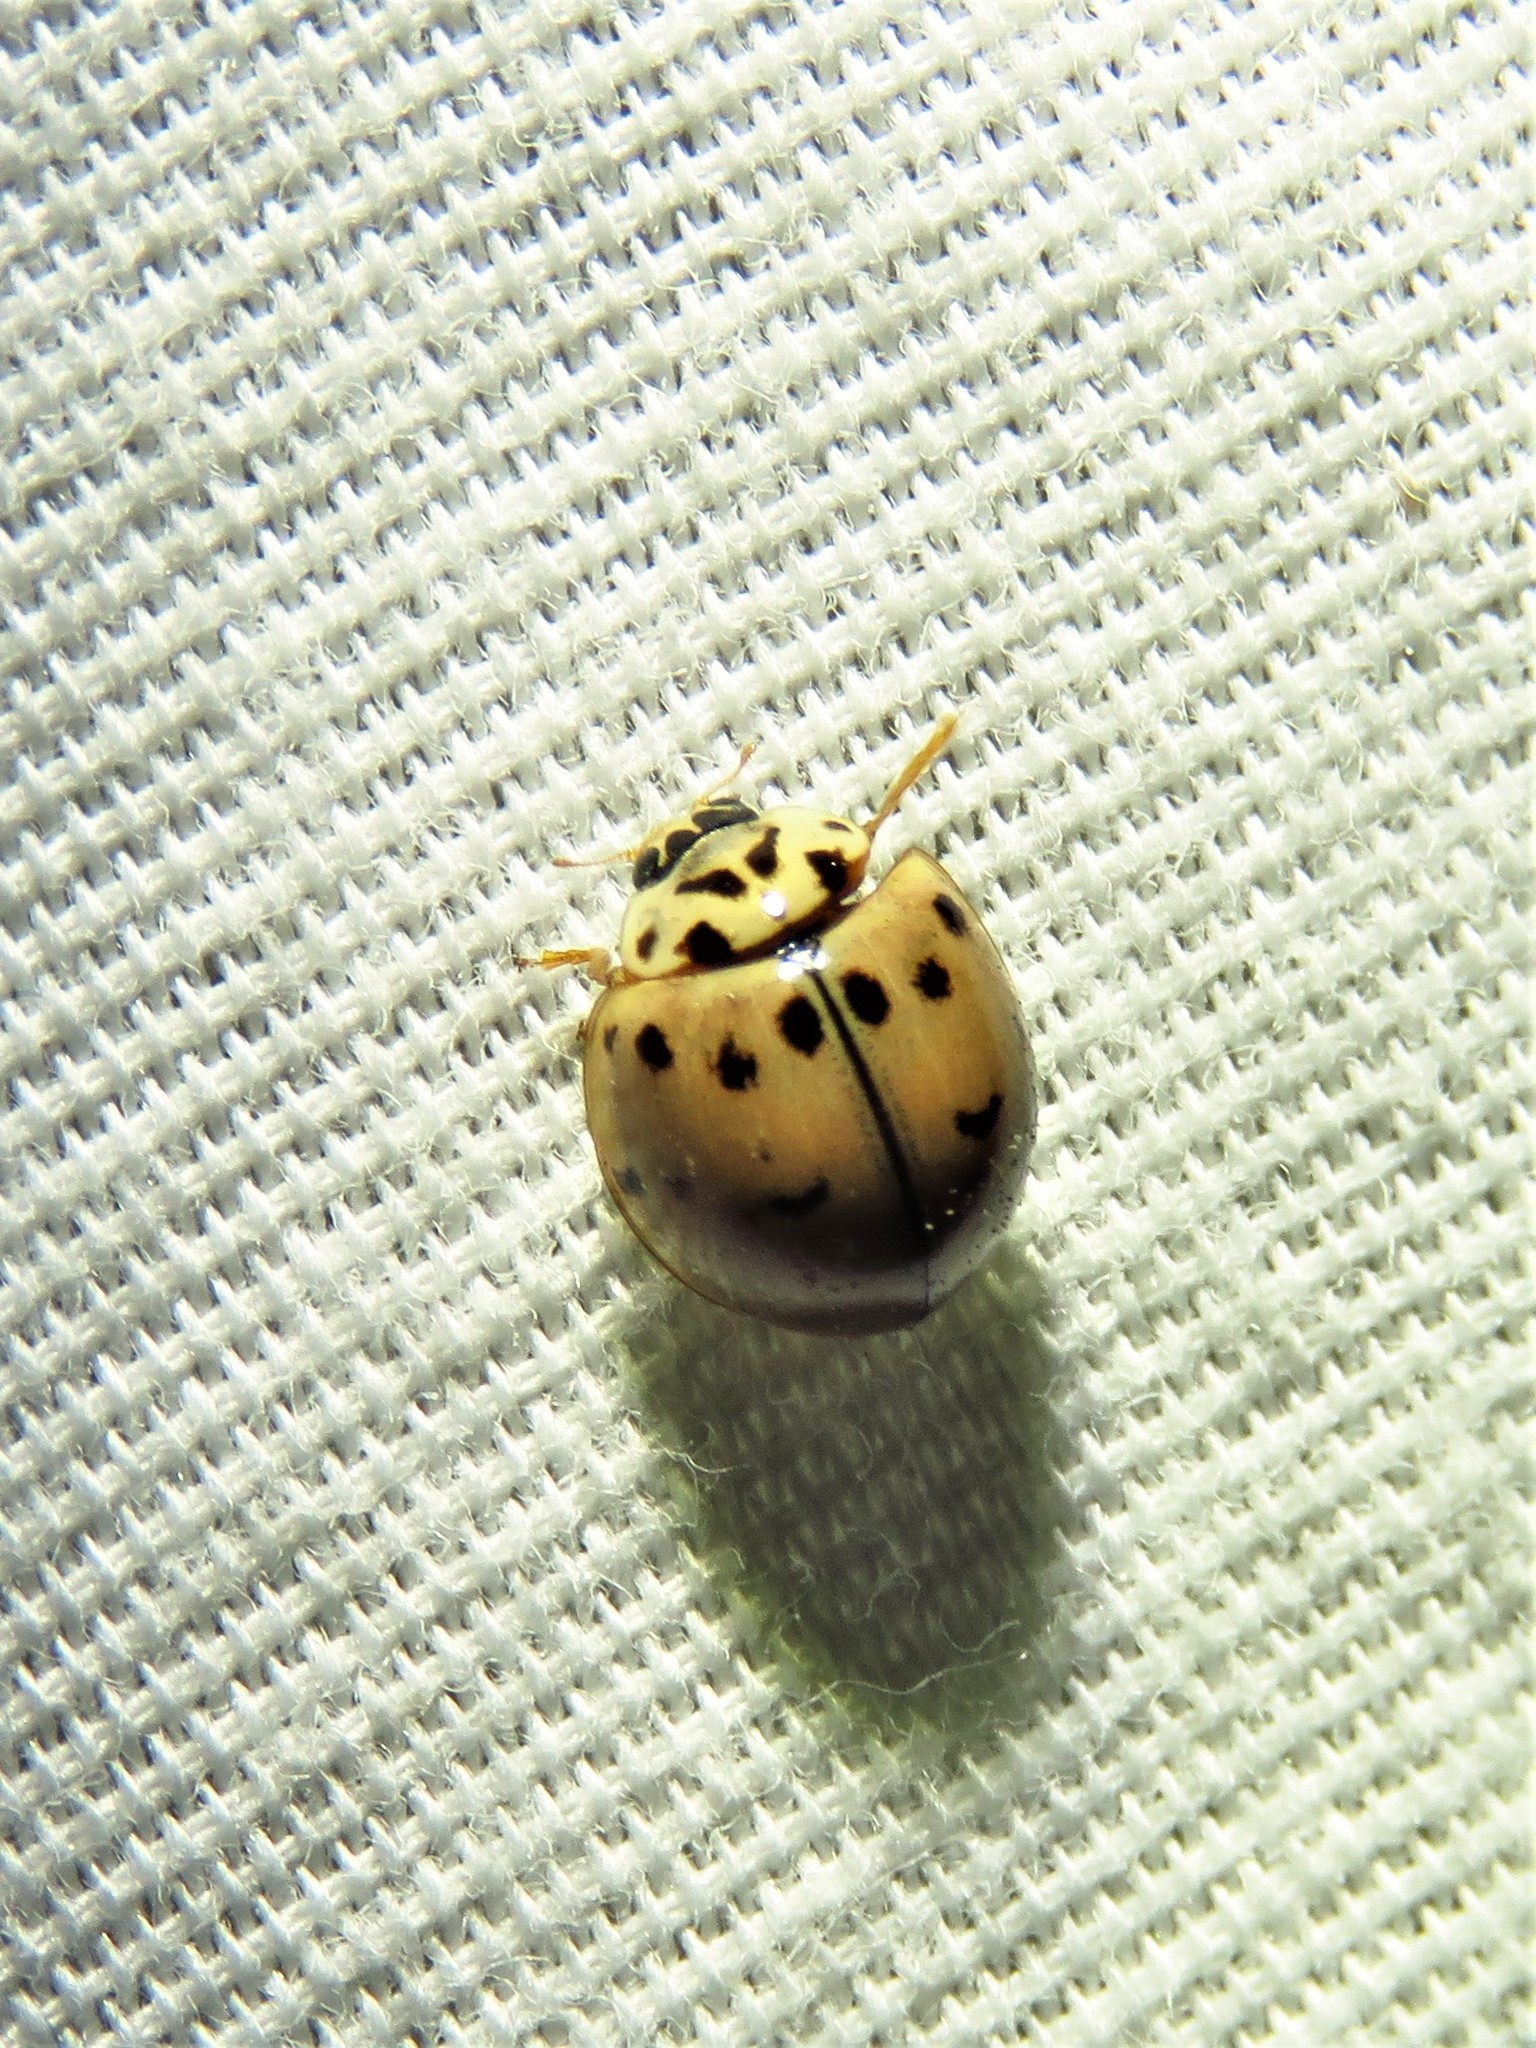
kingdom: Animalia
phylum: Arthropoda
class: Insecta
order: Coleoptera
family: Coccinellidae
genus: Olla
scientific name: Olla v-nigrum
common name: Ashy gray lady beetle
